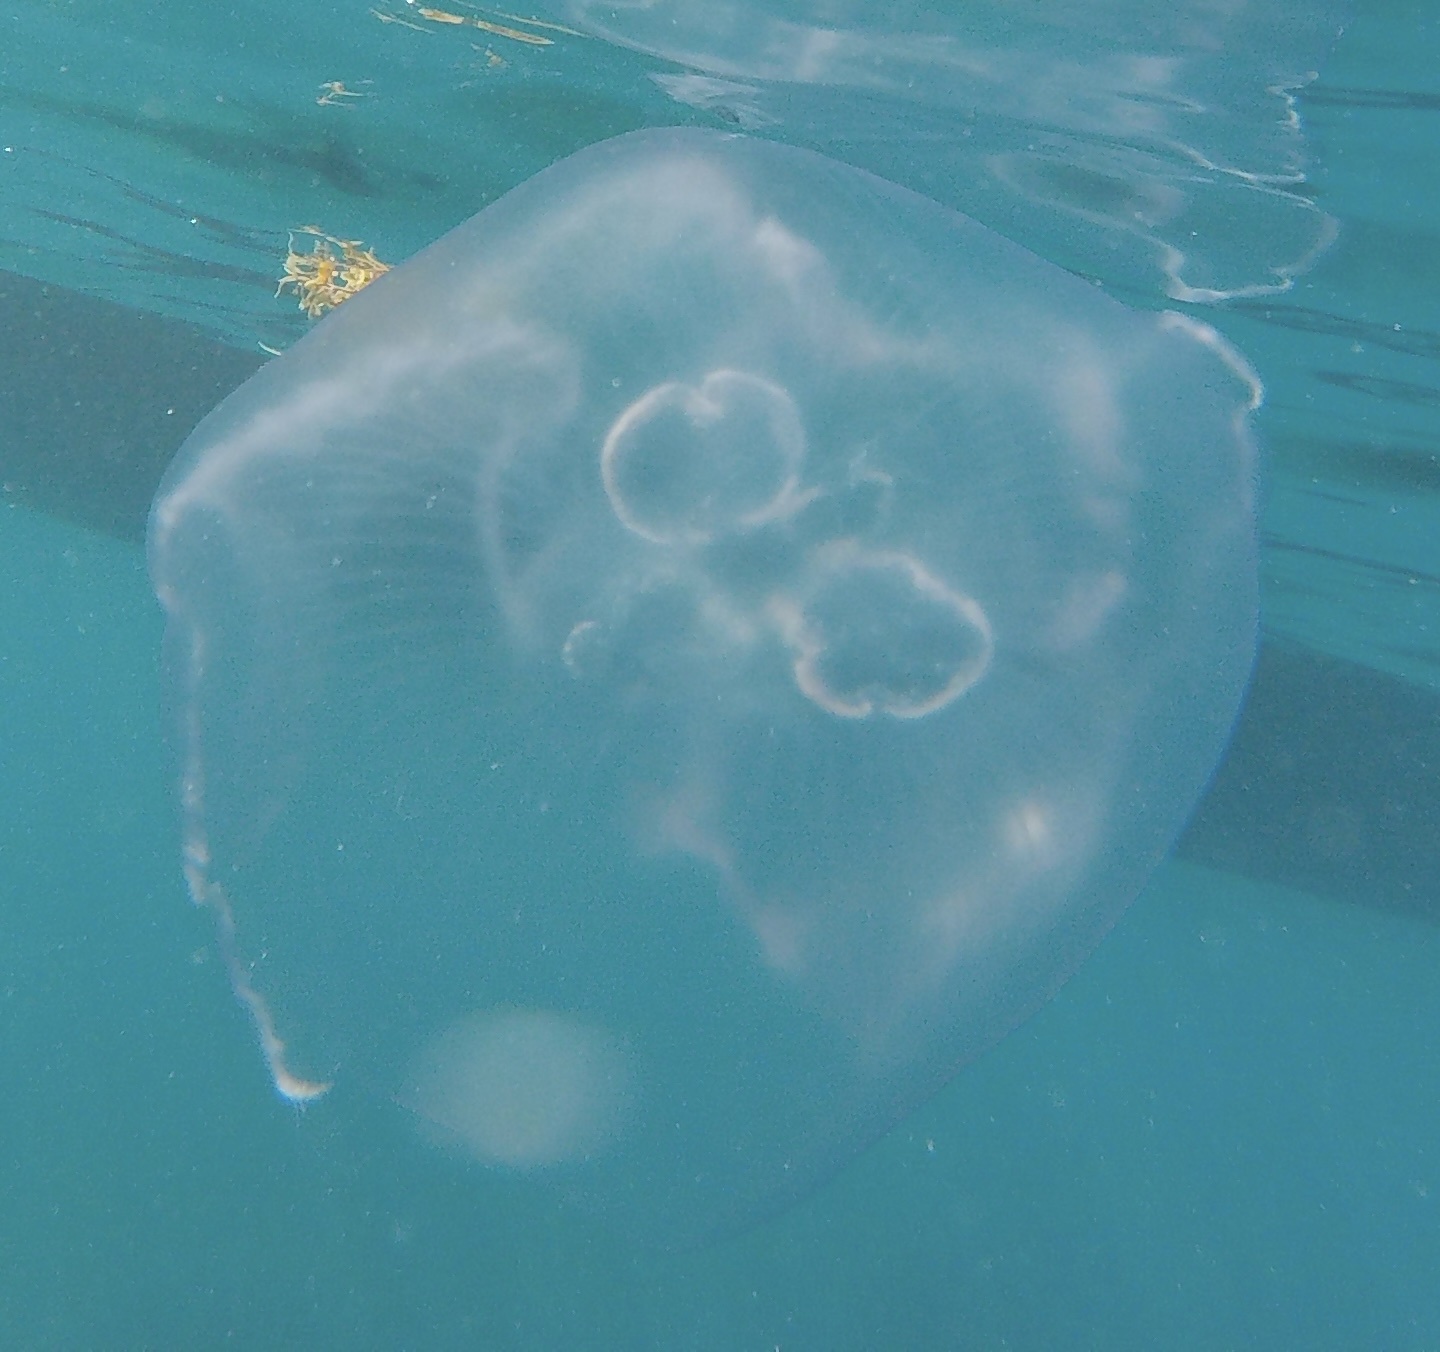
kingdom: Animalia
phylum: Cnidaria
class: Scyphozoa
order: Semaeostomeae
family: Ulmaridae
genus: Aurelia
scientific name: Aurelia marginalis
